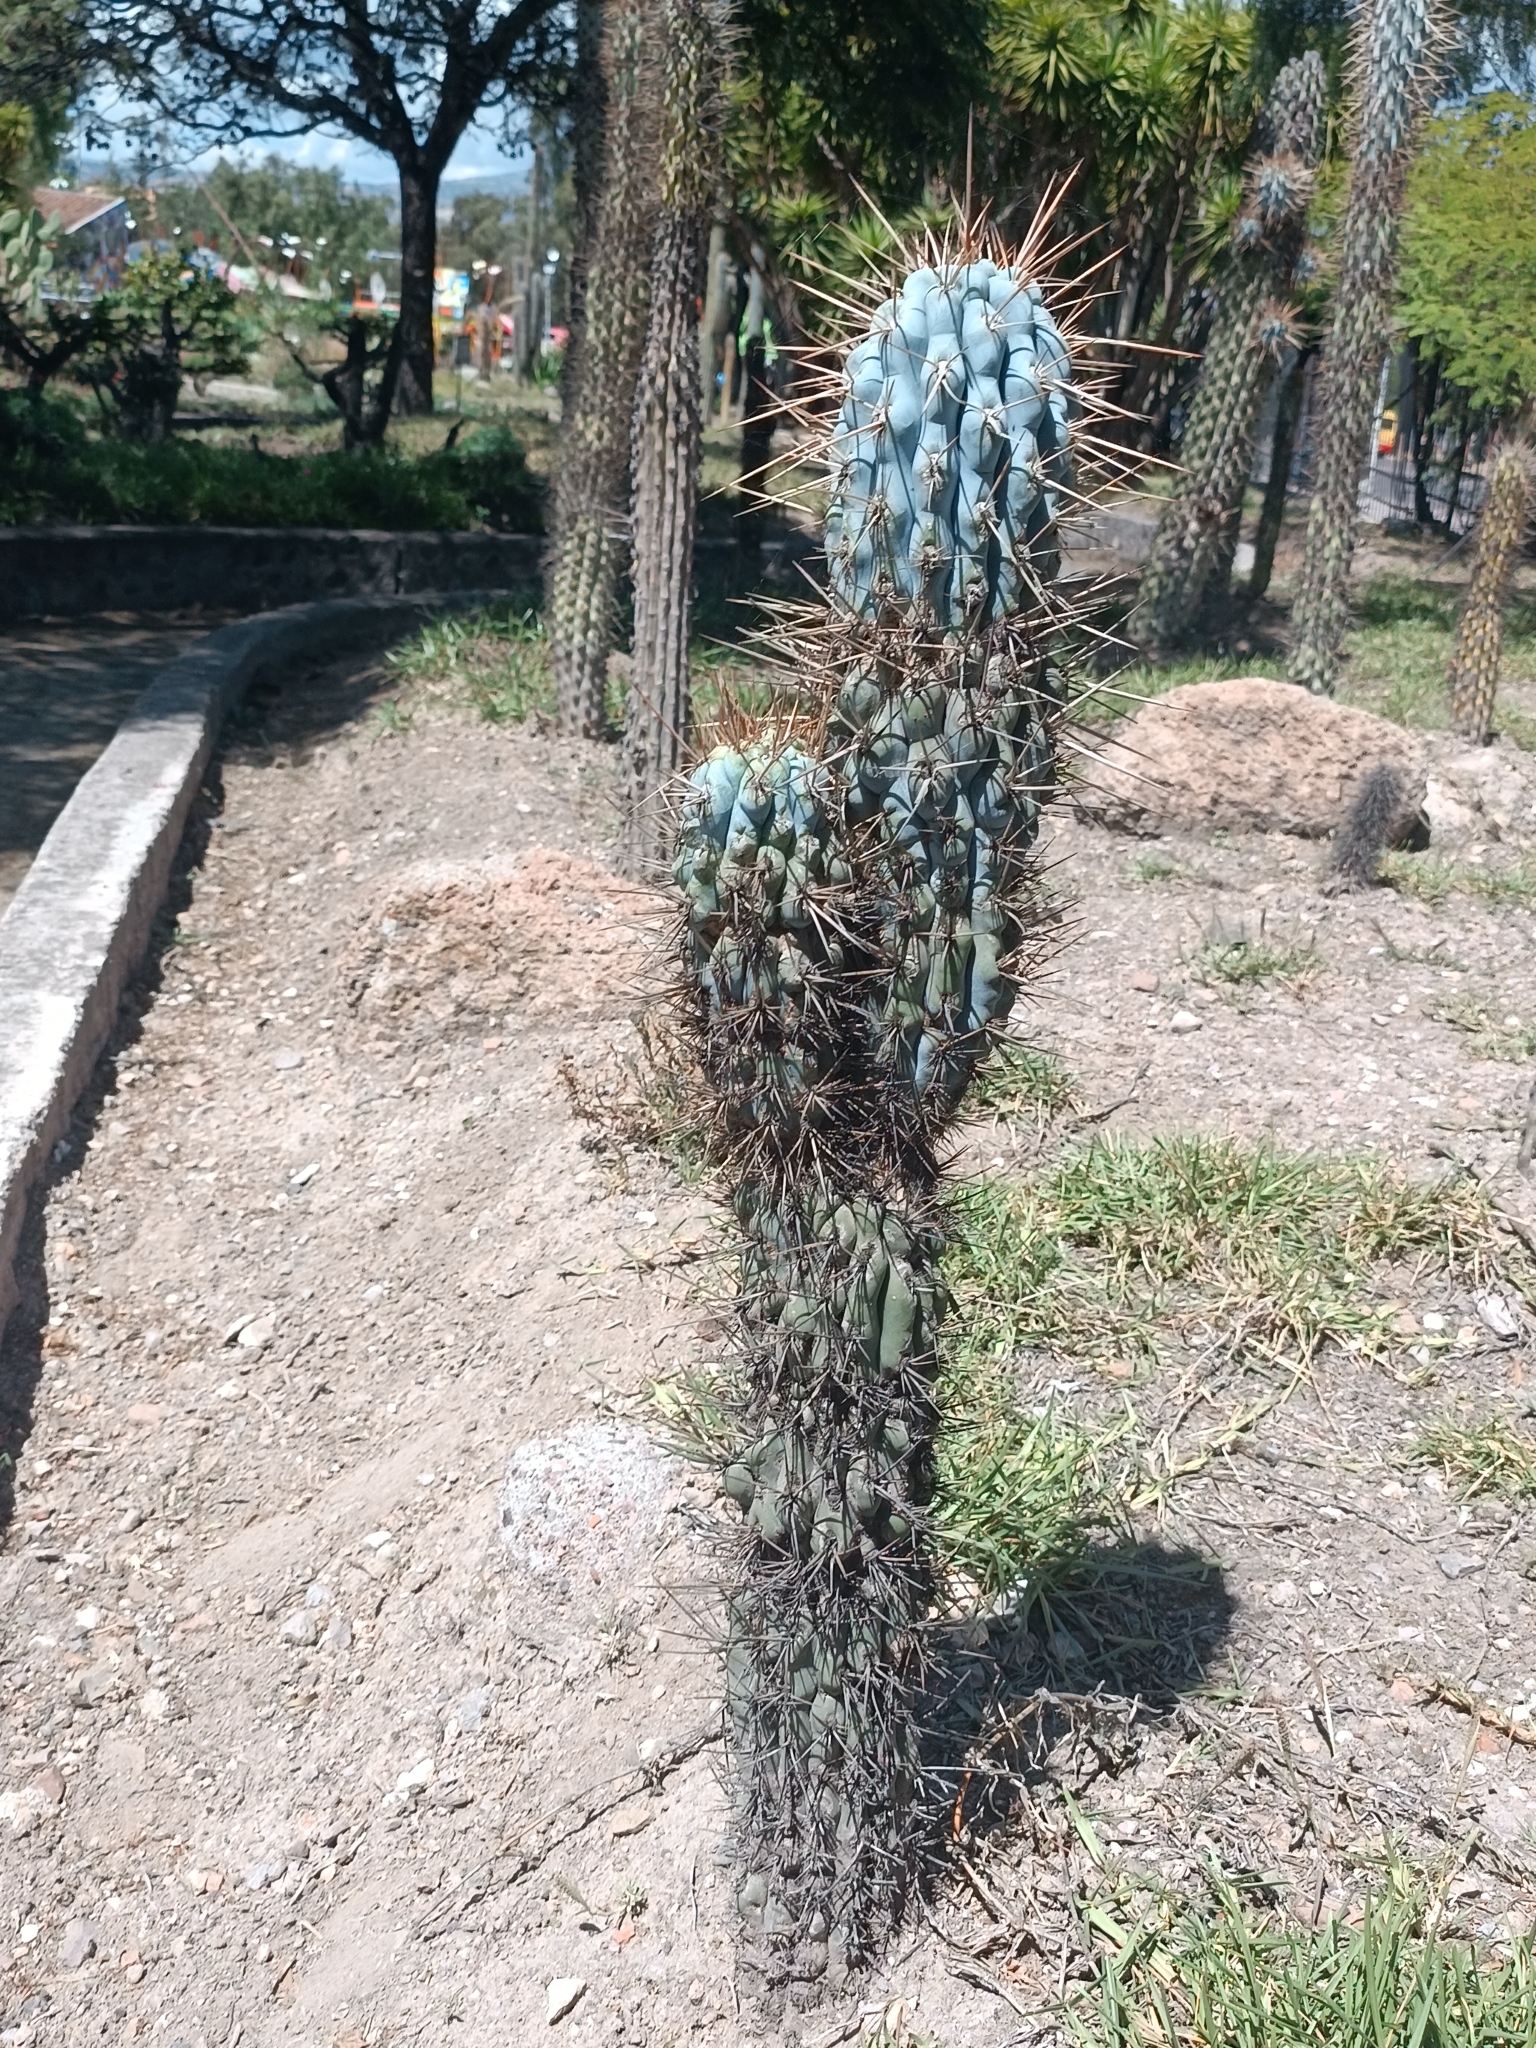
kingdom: Plantae
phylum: Tracheophyta
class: Magnoliopsida
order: Caryophyllales
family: Cactaceae
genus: Browningia
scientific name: Browningia hertlingiana
